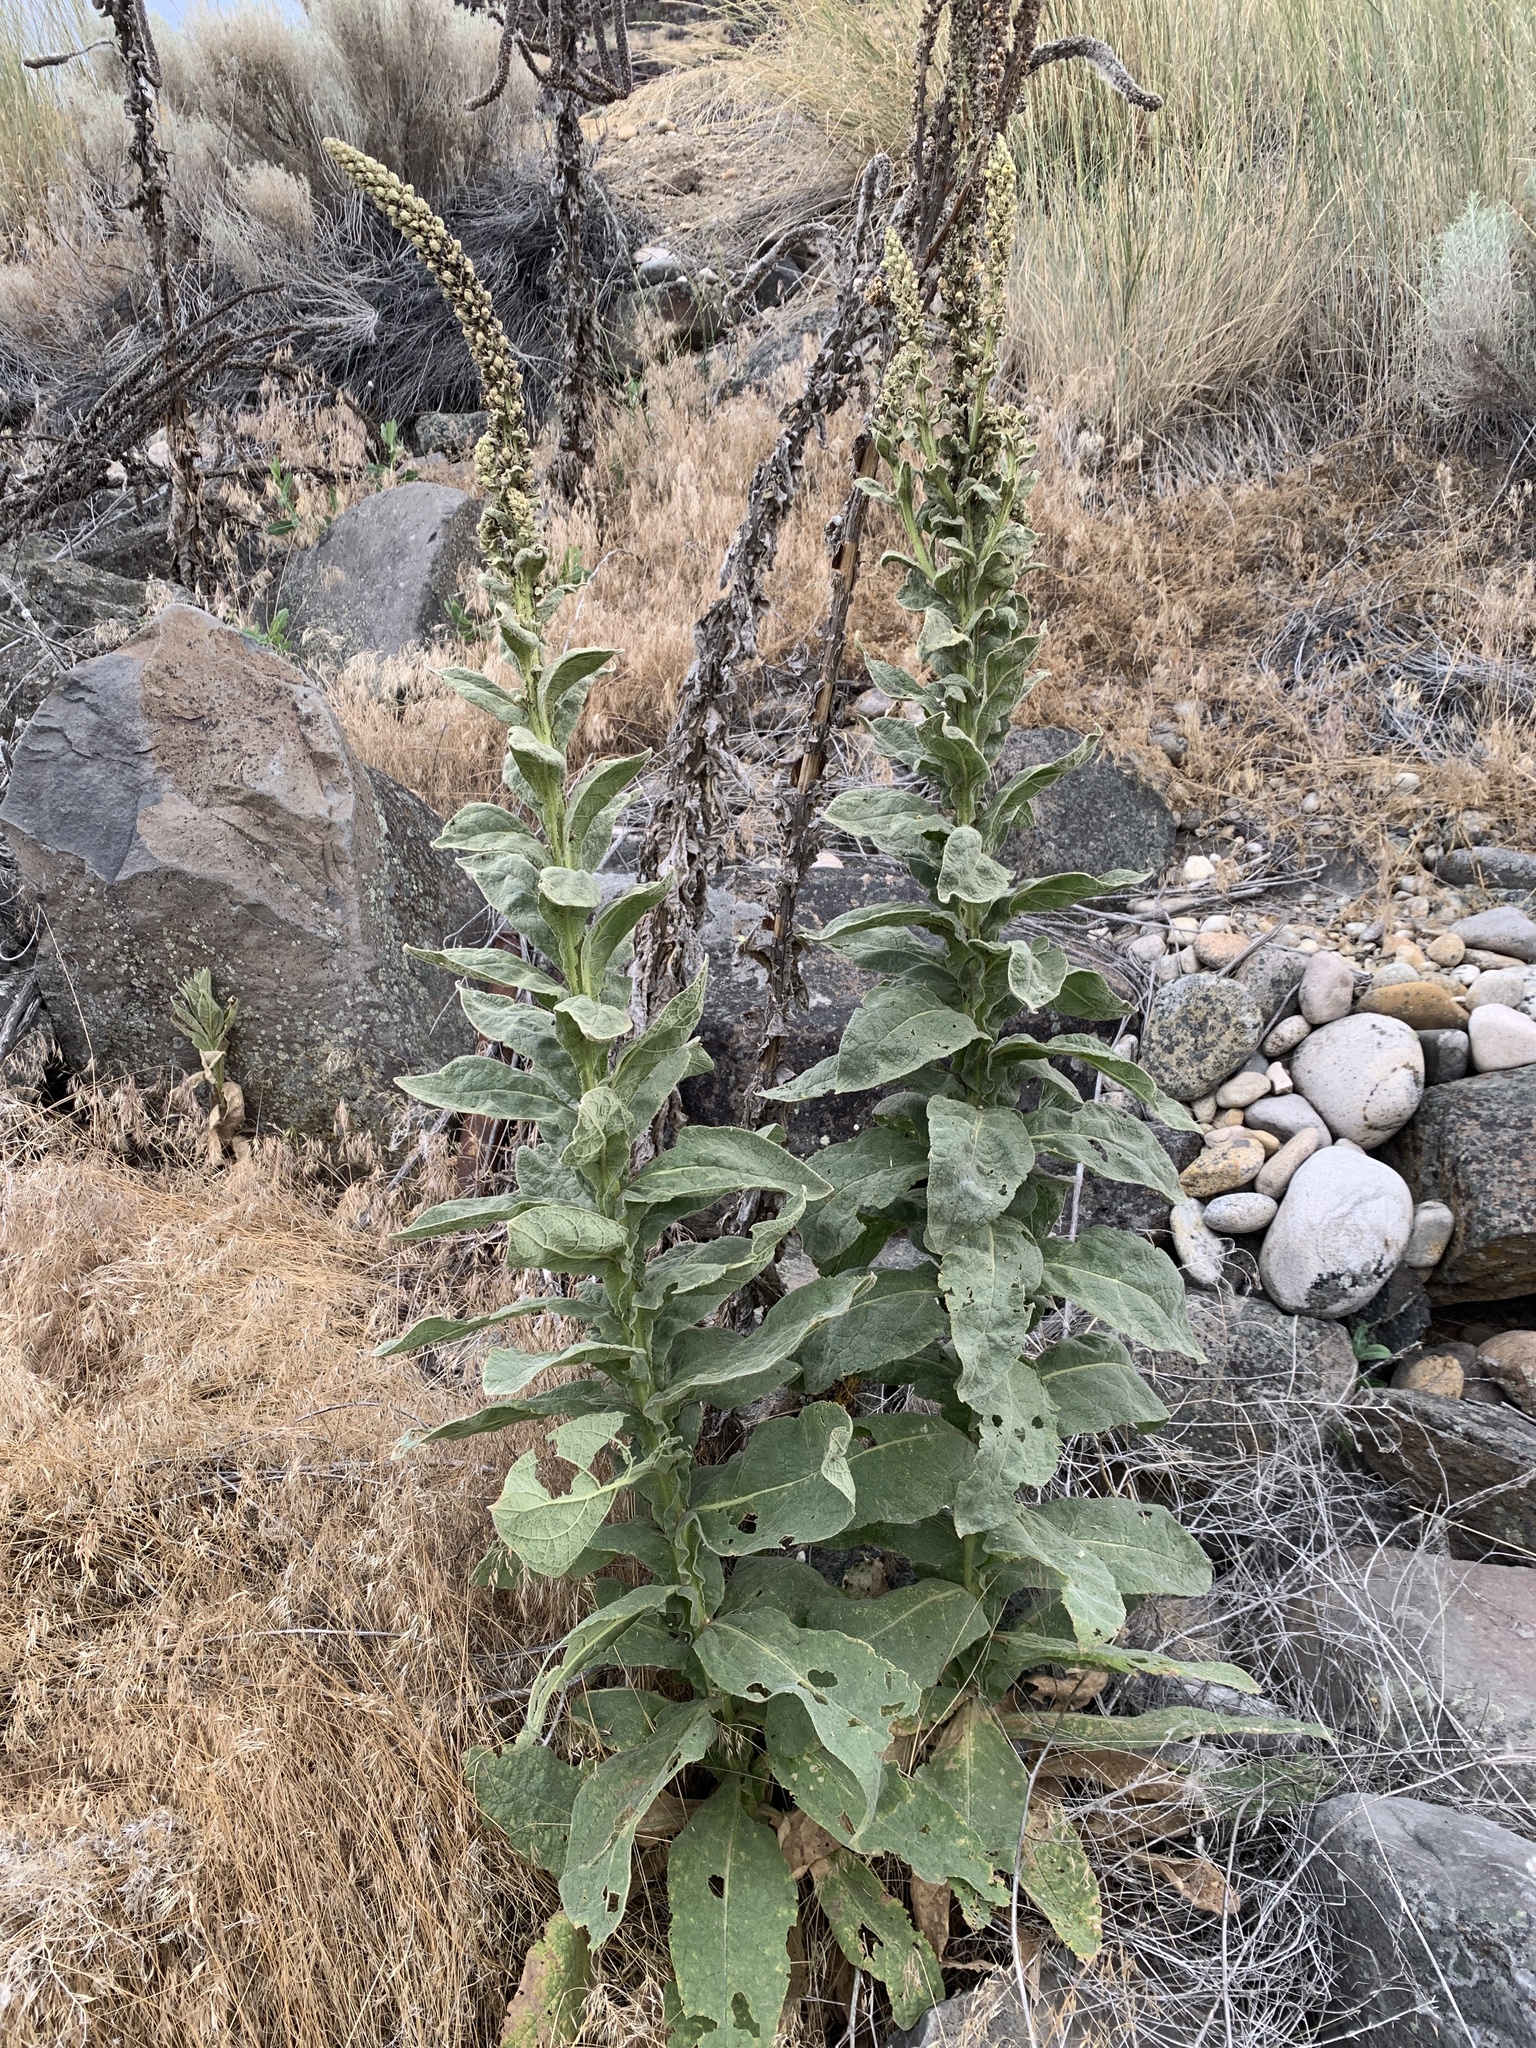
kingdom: Plantae
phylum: Tracheophyta
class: Magnoliopsida
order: Lamiales
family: Scrophulariaceae
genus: Verbascum
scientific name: Verbascum thapsus
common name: Common mullein
